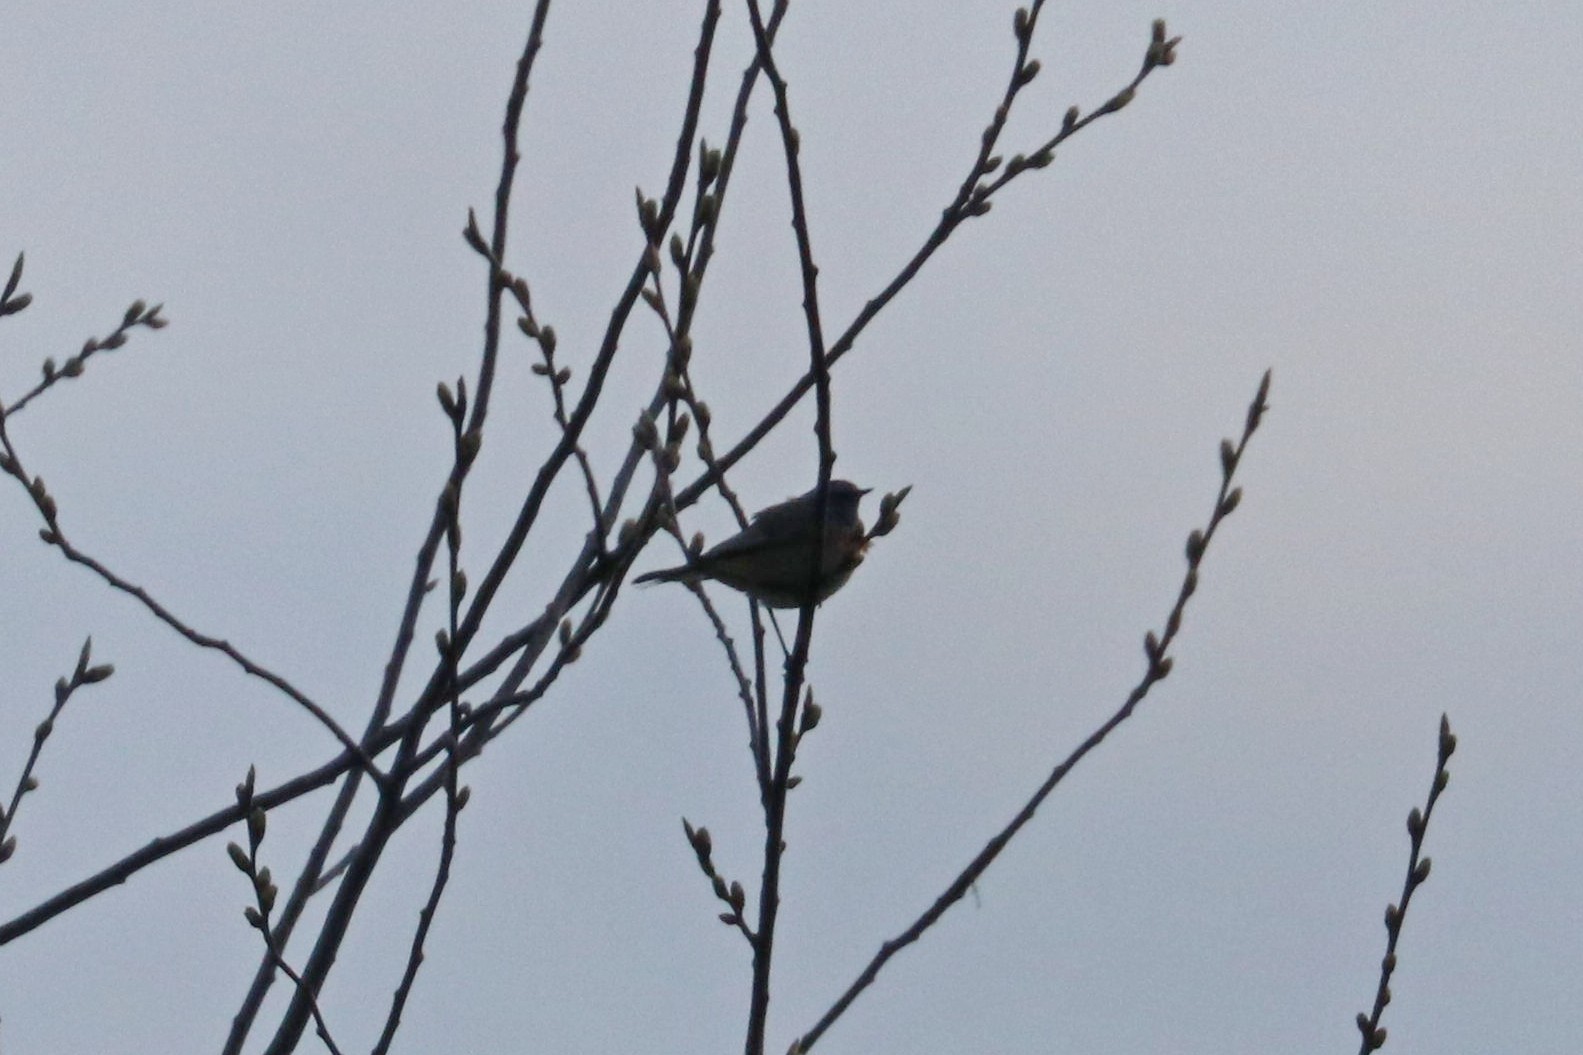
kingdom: Animalia
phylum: Chordata
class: Aves
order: Passeriformes
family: Muscicapidae
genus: Luscinia
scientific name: Luscinia svecica
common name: Bluethroat
